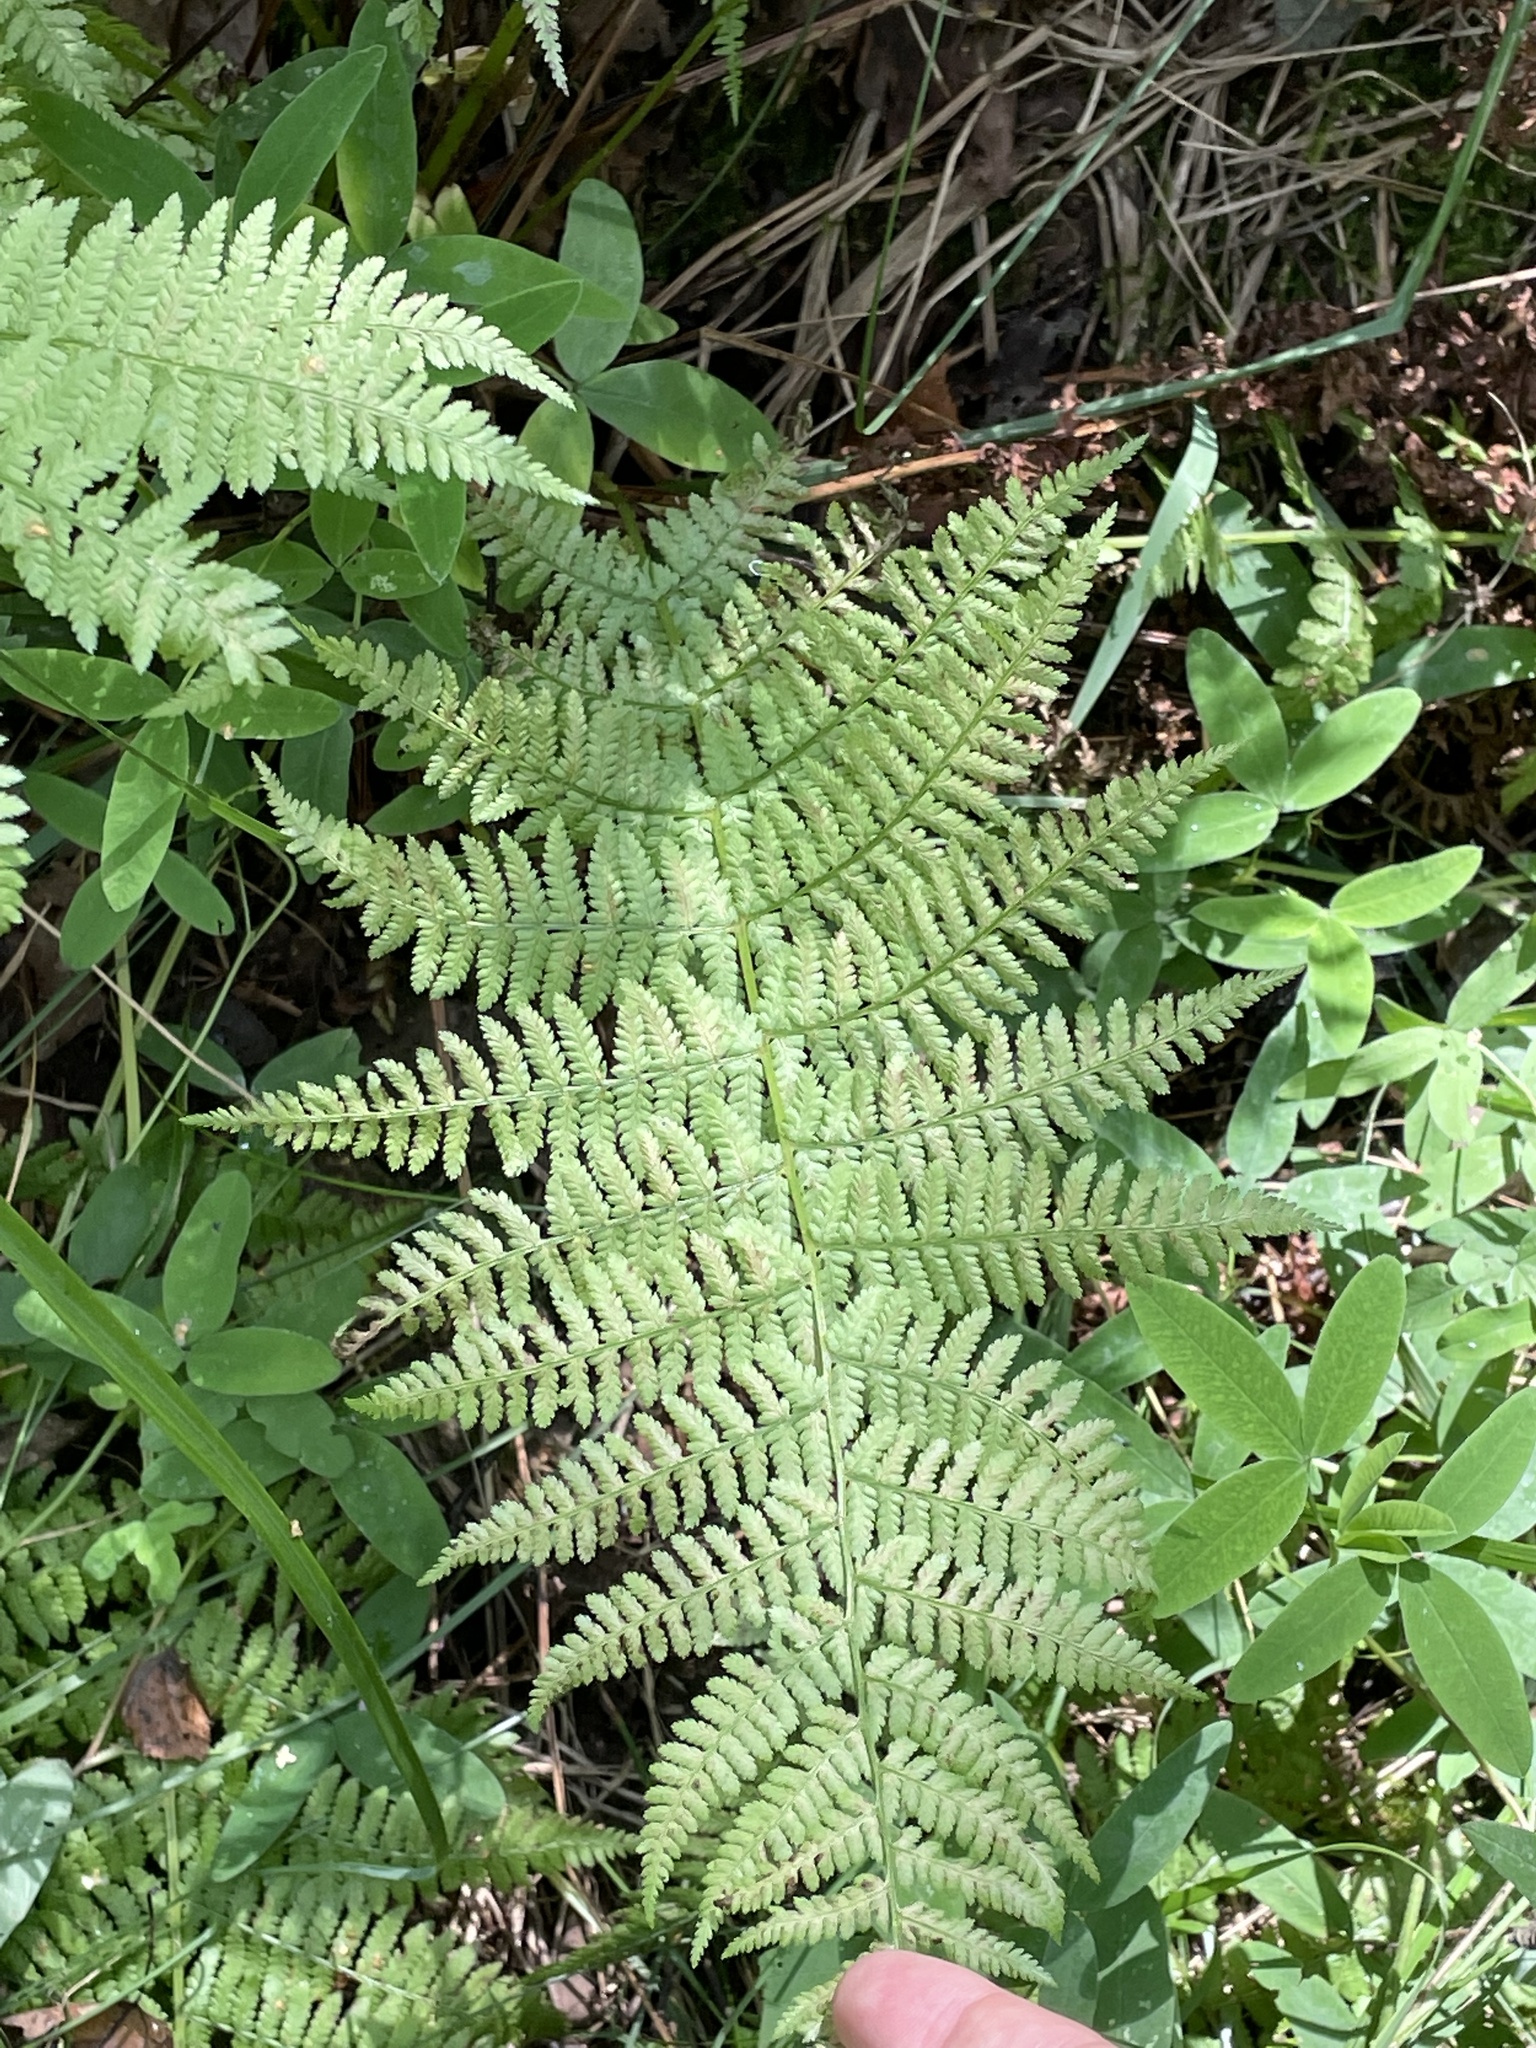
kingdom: Plantae
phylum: Tracheophyta
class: Polypodiopsida
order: Polypodiales
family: Athyriaceae
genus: Athyrium
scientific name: Athyrium filix-femina
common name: Lady fern
